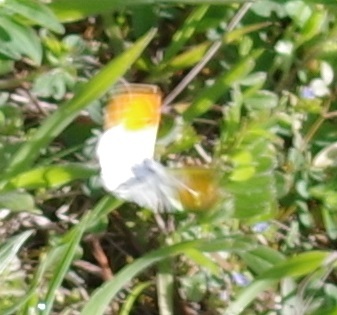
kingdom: Animalia
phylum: Arthropoda
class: Insecta
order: Lepidoptera
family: Pieridae
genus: Anthocharis
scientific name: Anthocharis cardamines
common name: Orange-tip
